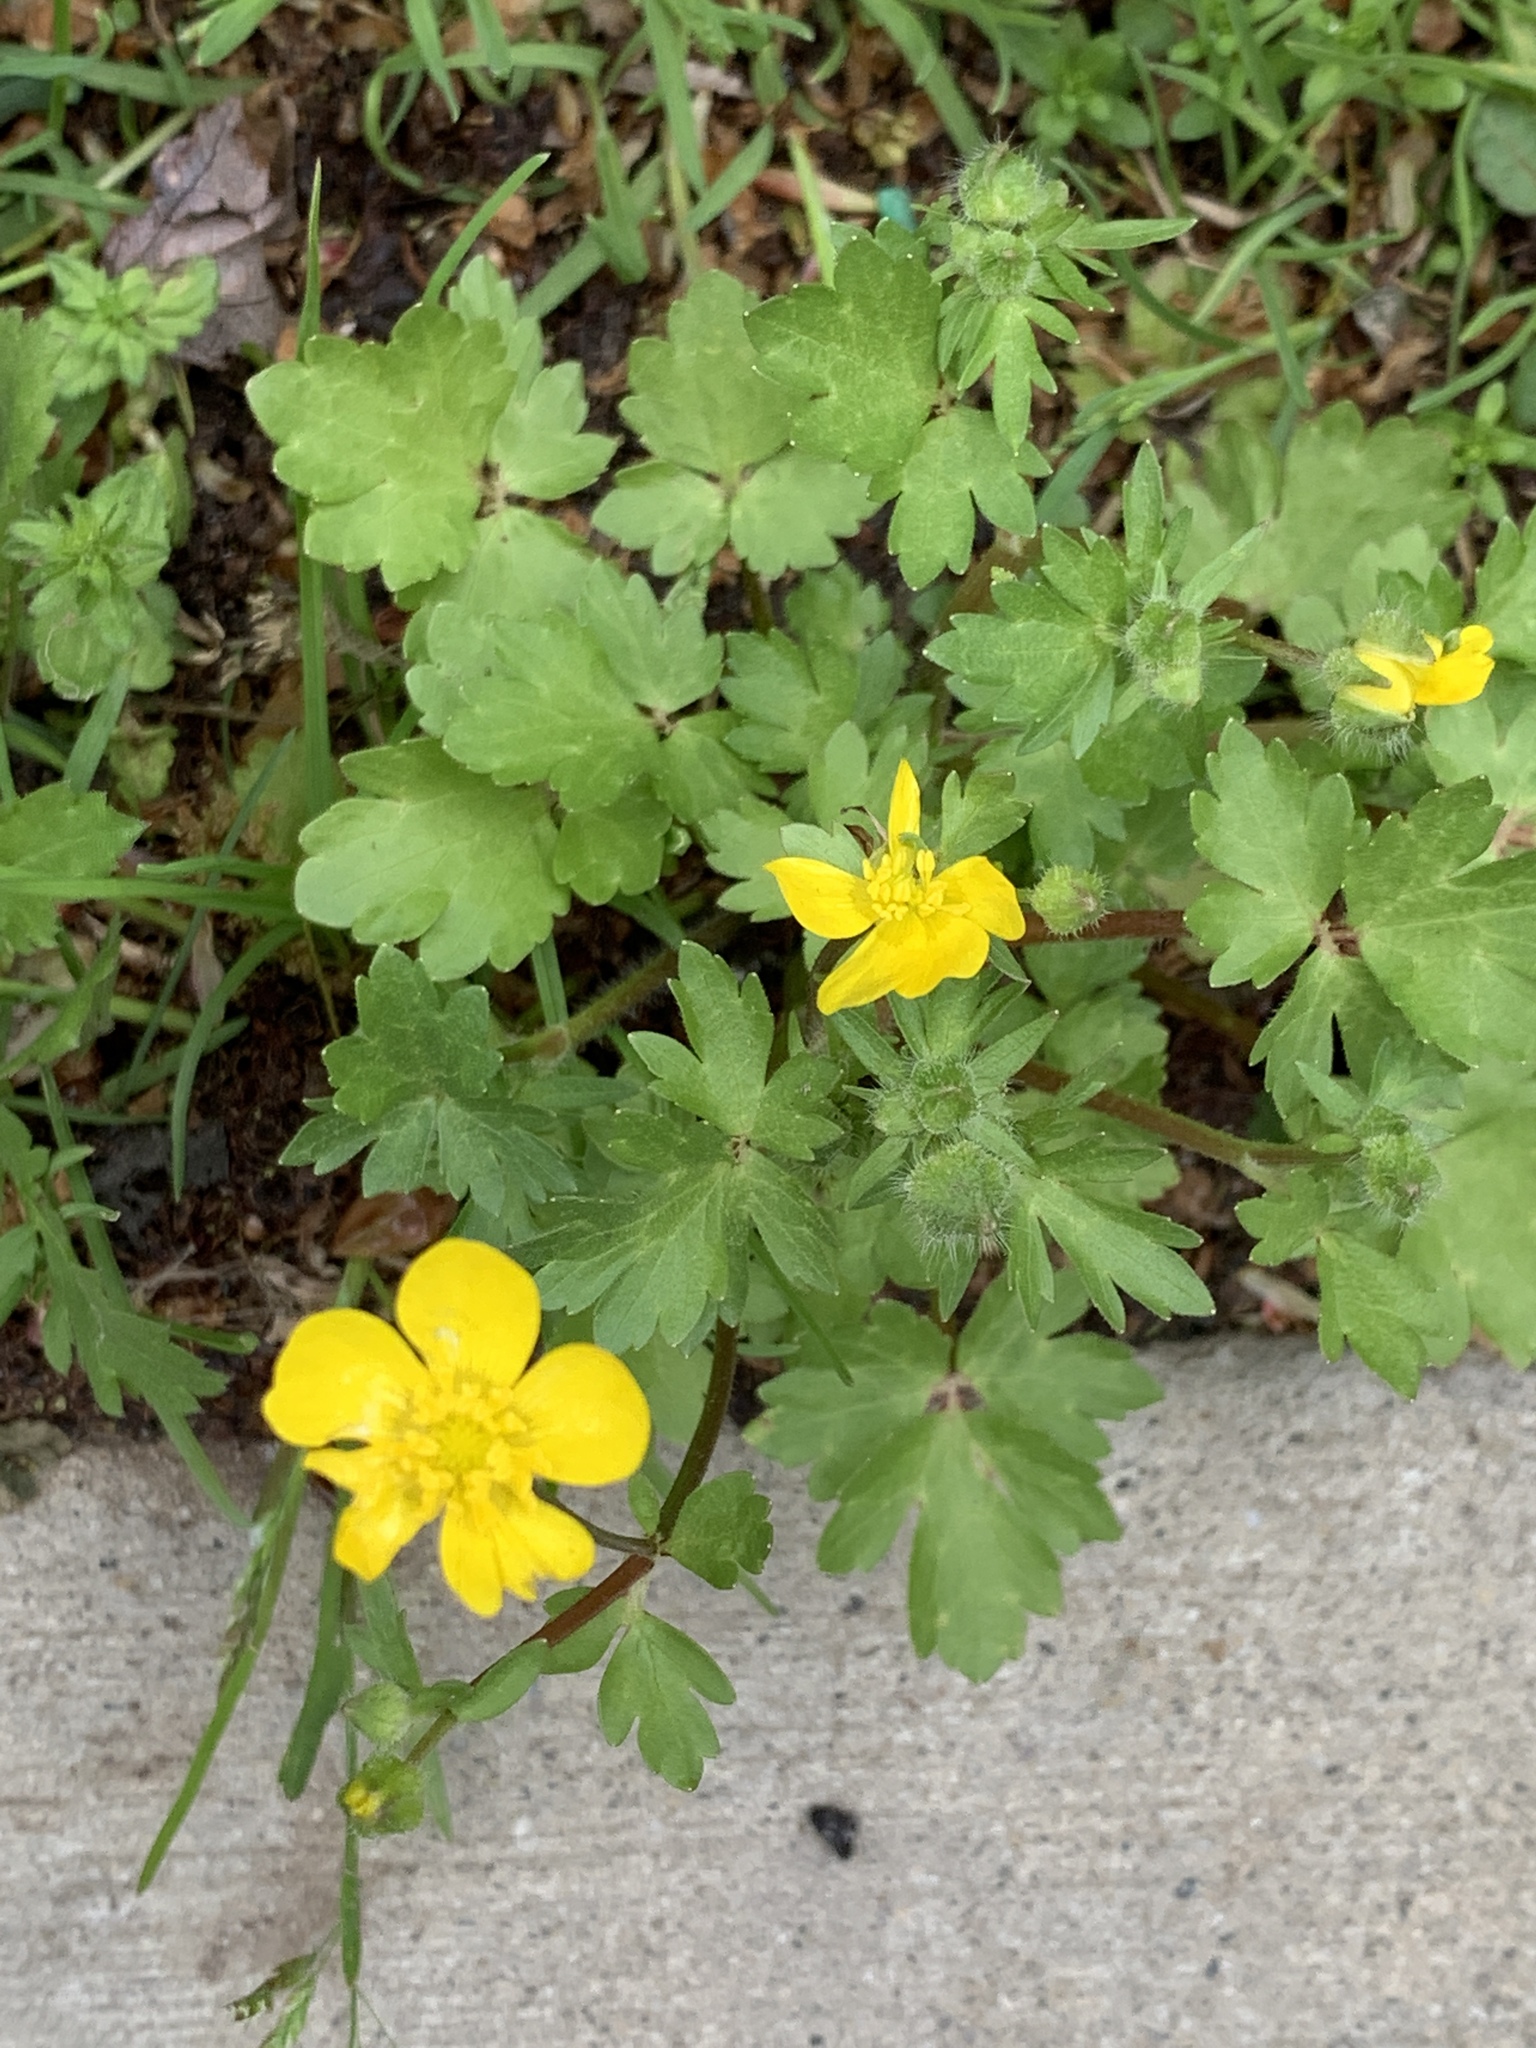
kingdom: Plantae
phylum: Tracheophyta
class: Magnoliopsida
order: Ranunculales
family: Ranunculaceae
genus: Ranunculus
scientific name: Ranunculus bulbosus
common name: Bulbous buttercup
